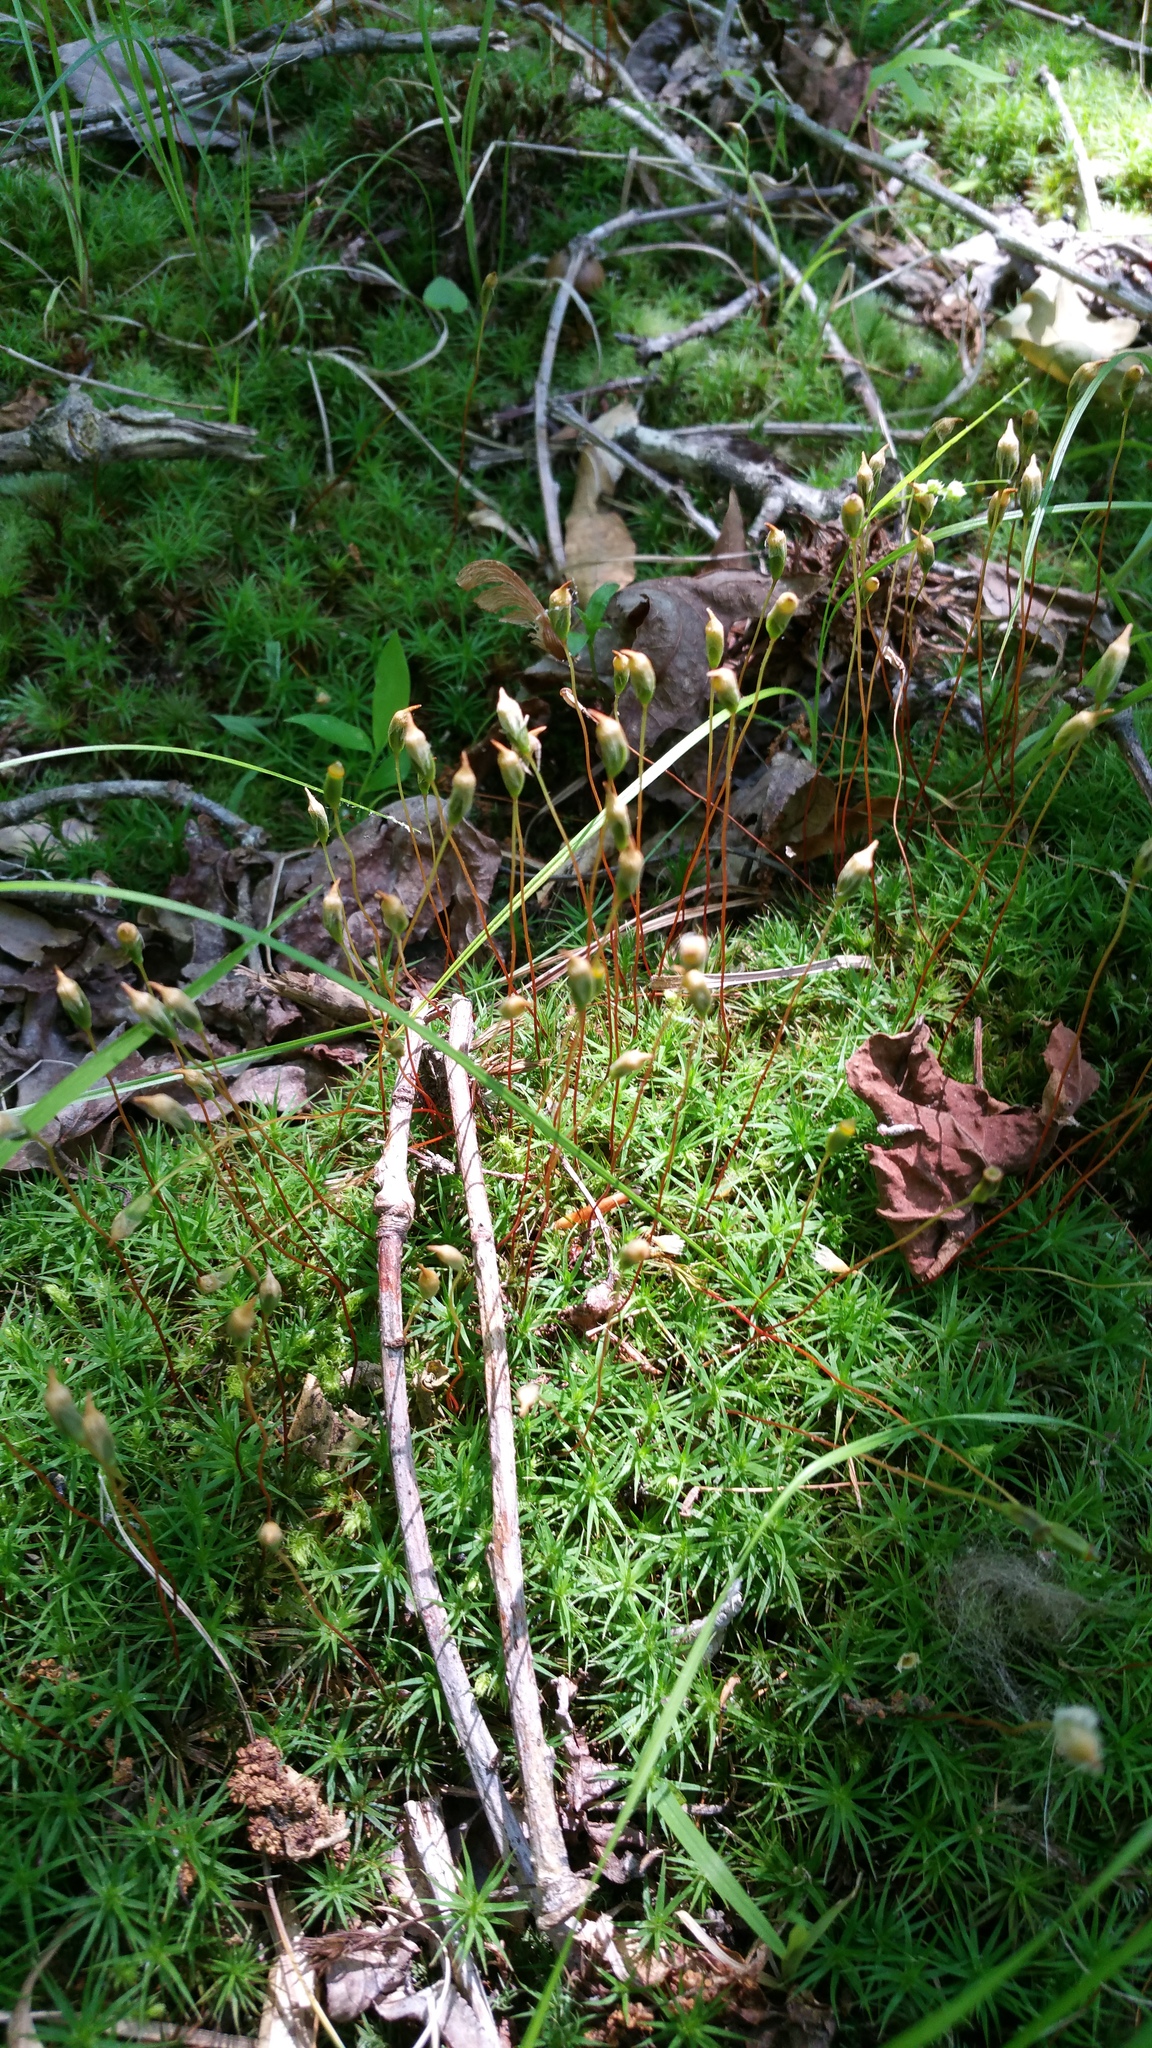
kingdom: Plantae
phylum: Bryophyta
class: Polytrichopsida
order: Polytrichales
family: Polytrichaceae
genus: Polytrichum
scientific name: Polytrichum commune
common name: Common haircap
